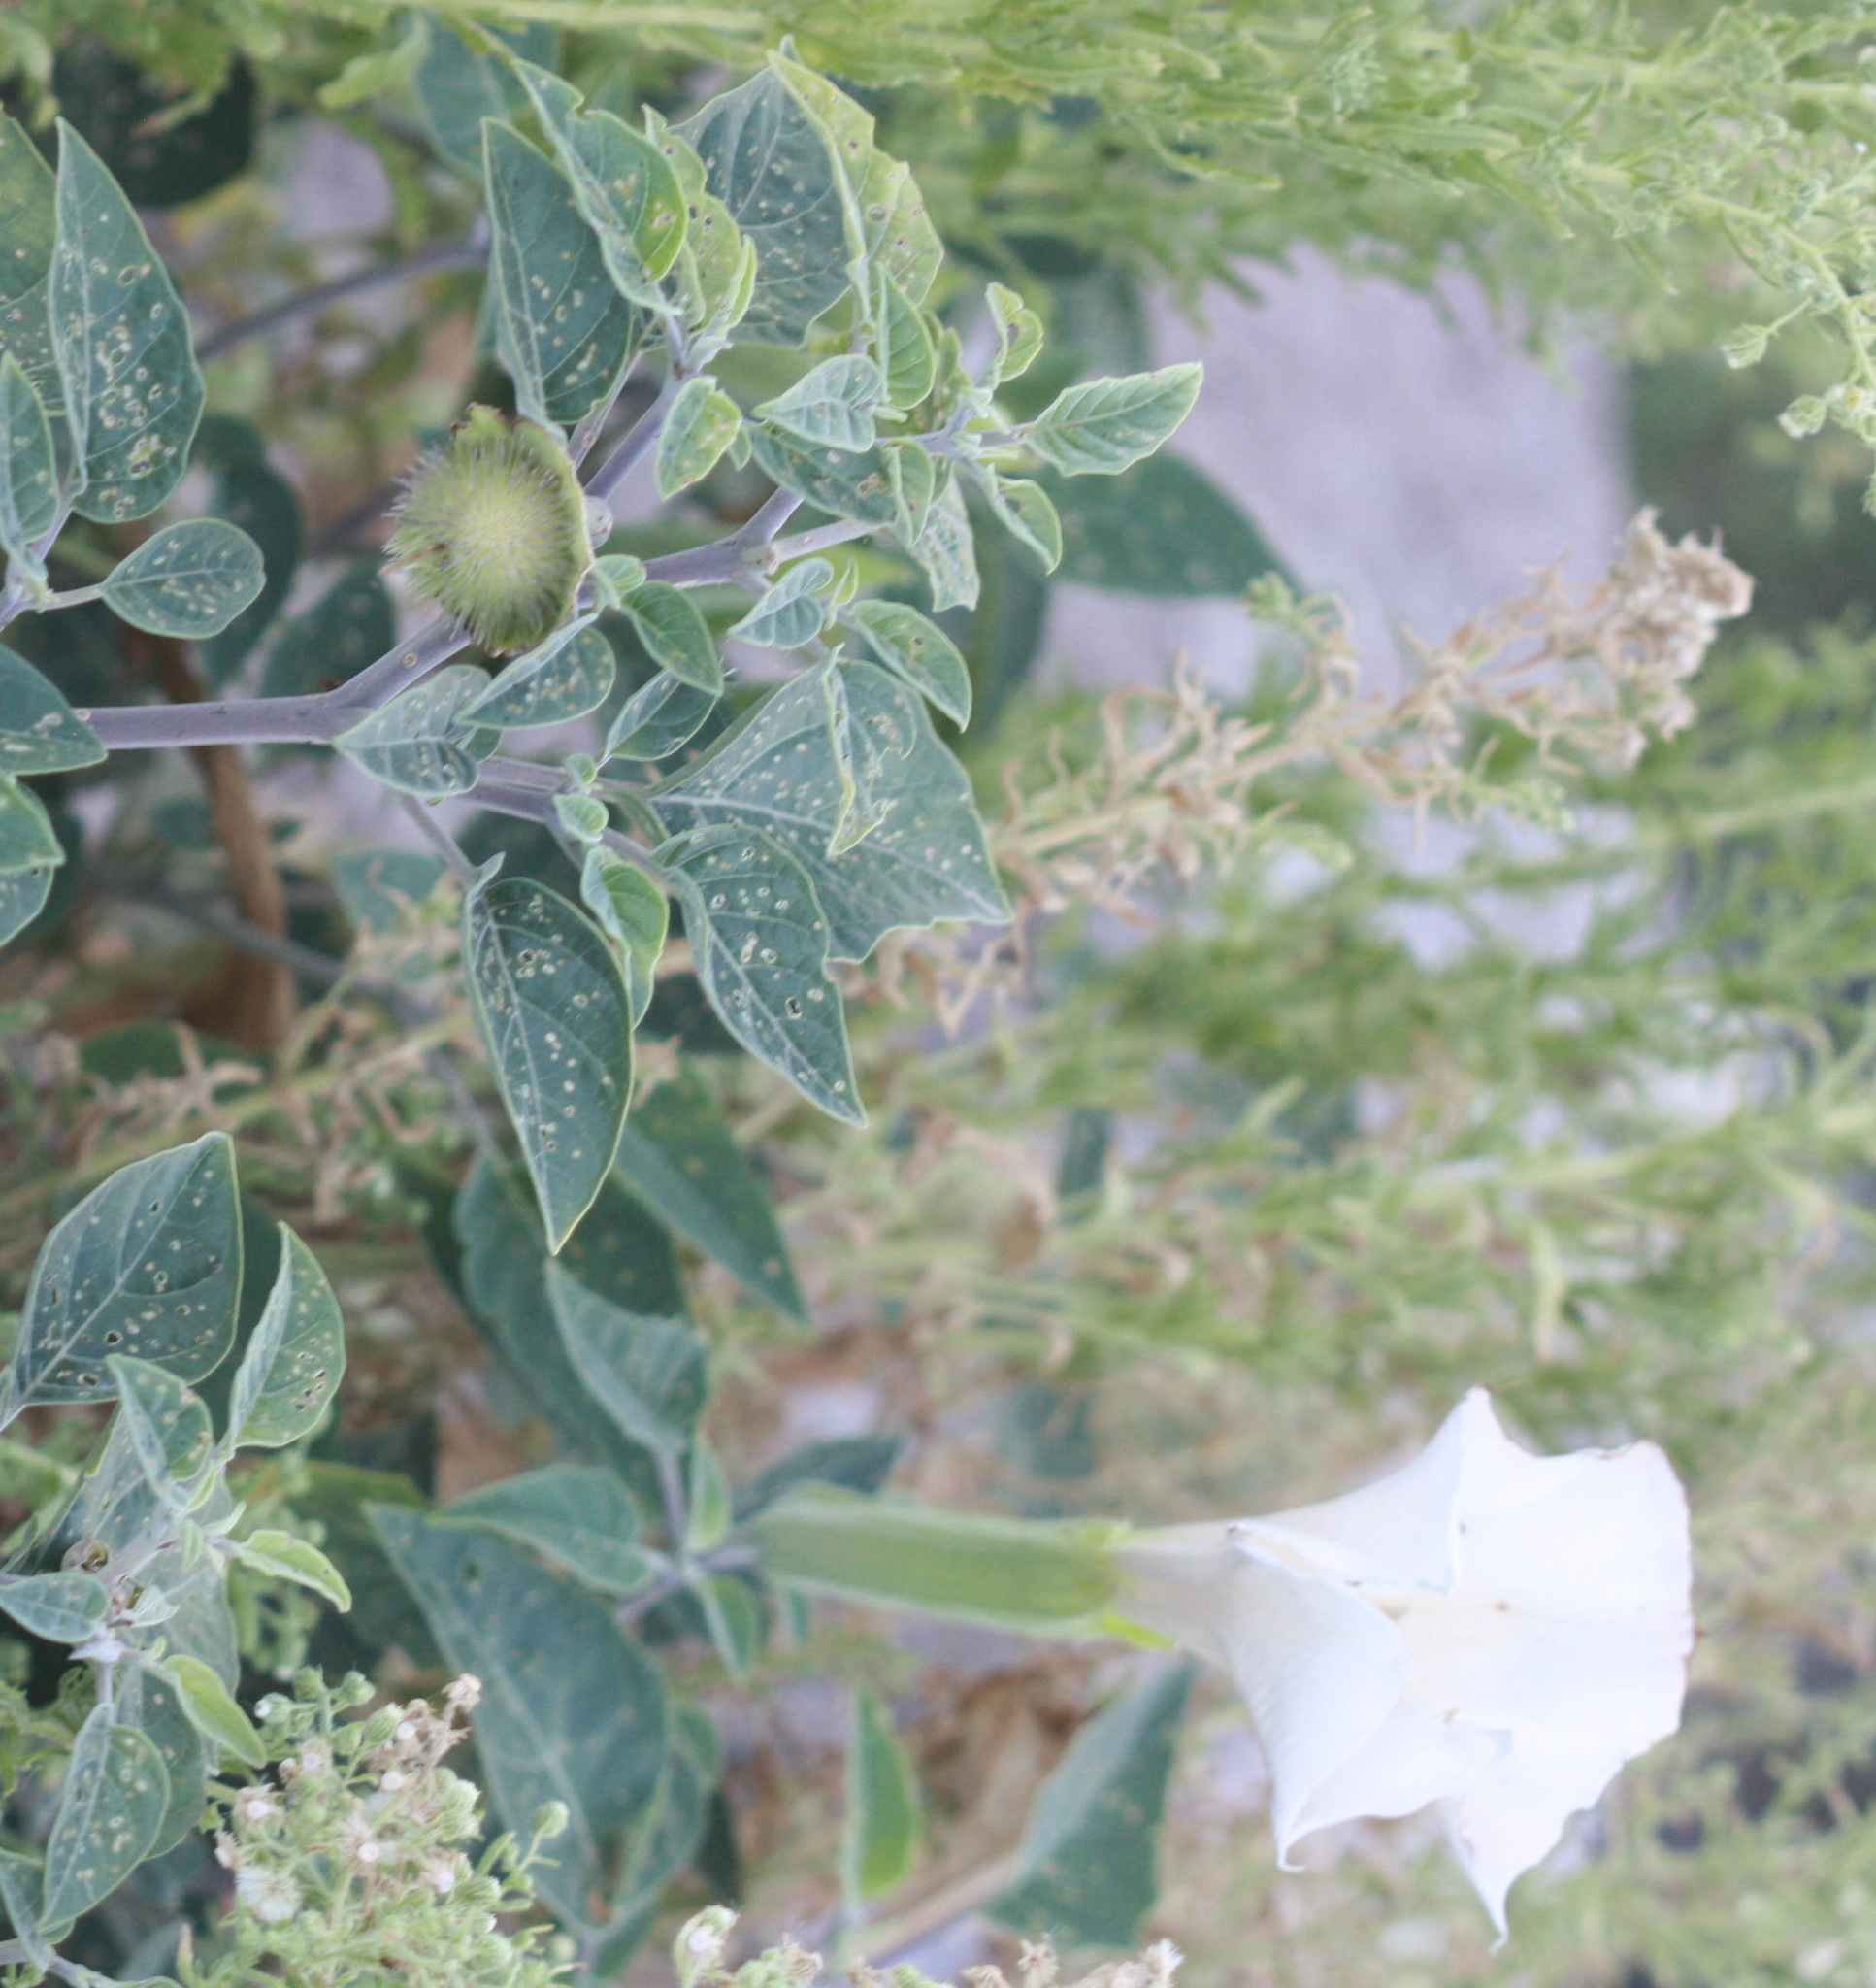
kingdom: Plantae
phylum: Tracheophyta
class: Magnoliopsida
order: Solanales
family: Solanaceae
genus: Datura
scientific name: Datura wrightii
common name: Sacred thorn-apple
